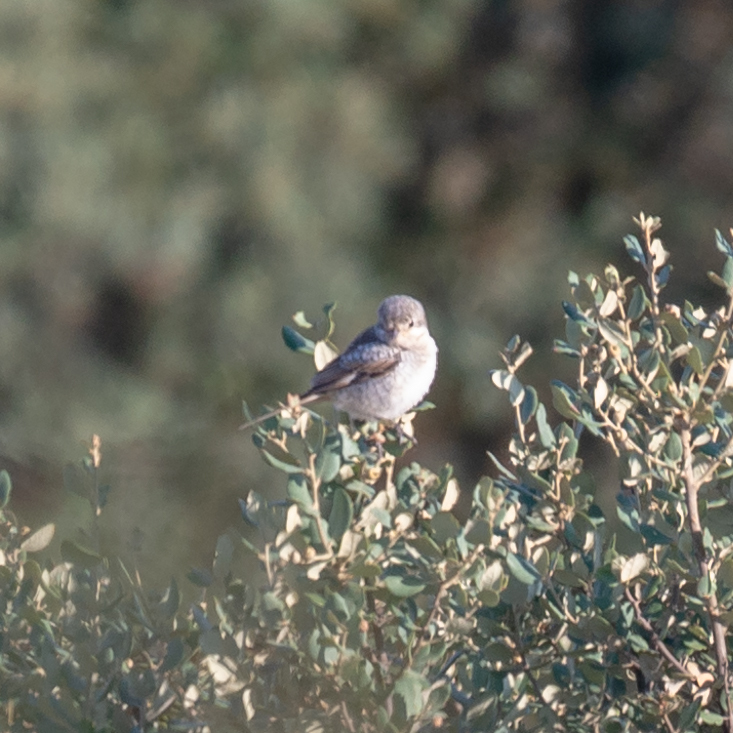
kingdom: Animalia
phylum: Chordata
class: Aves
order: Passeriformes
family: Laniidae
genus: Lanius
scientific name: Lanius senator
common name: Woodchat shrike
